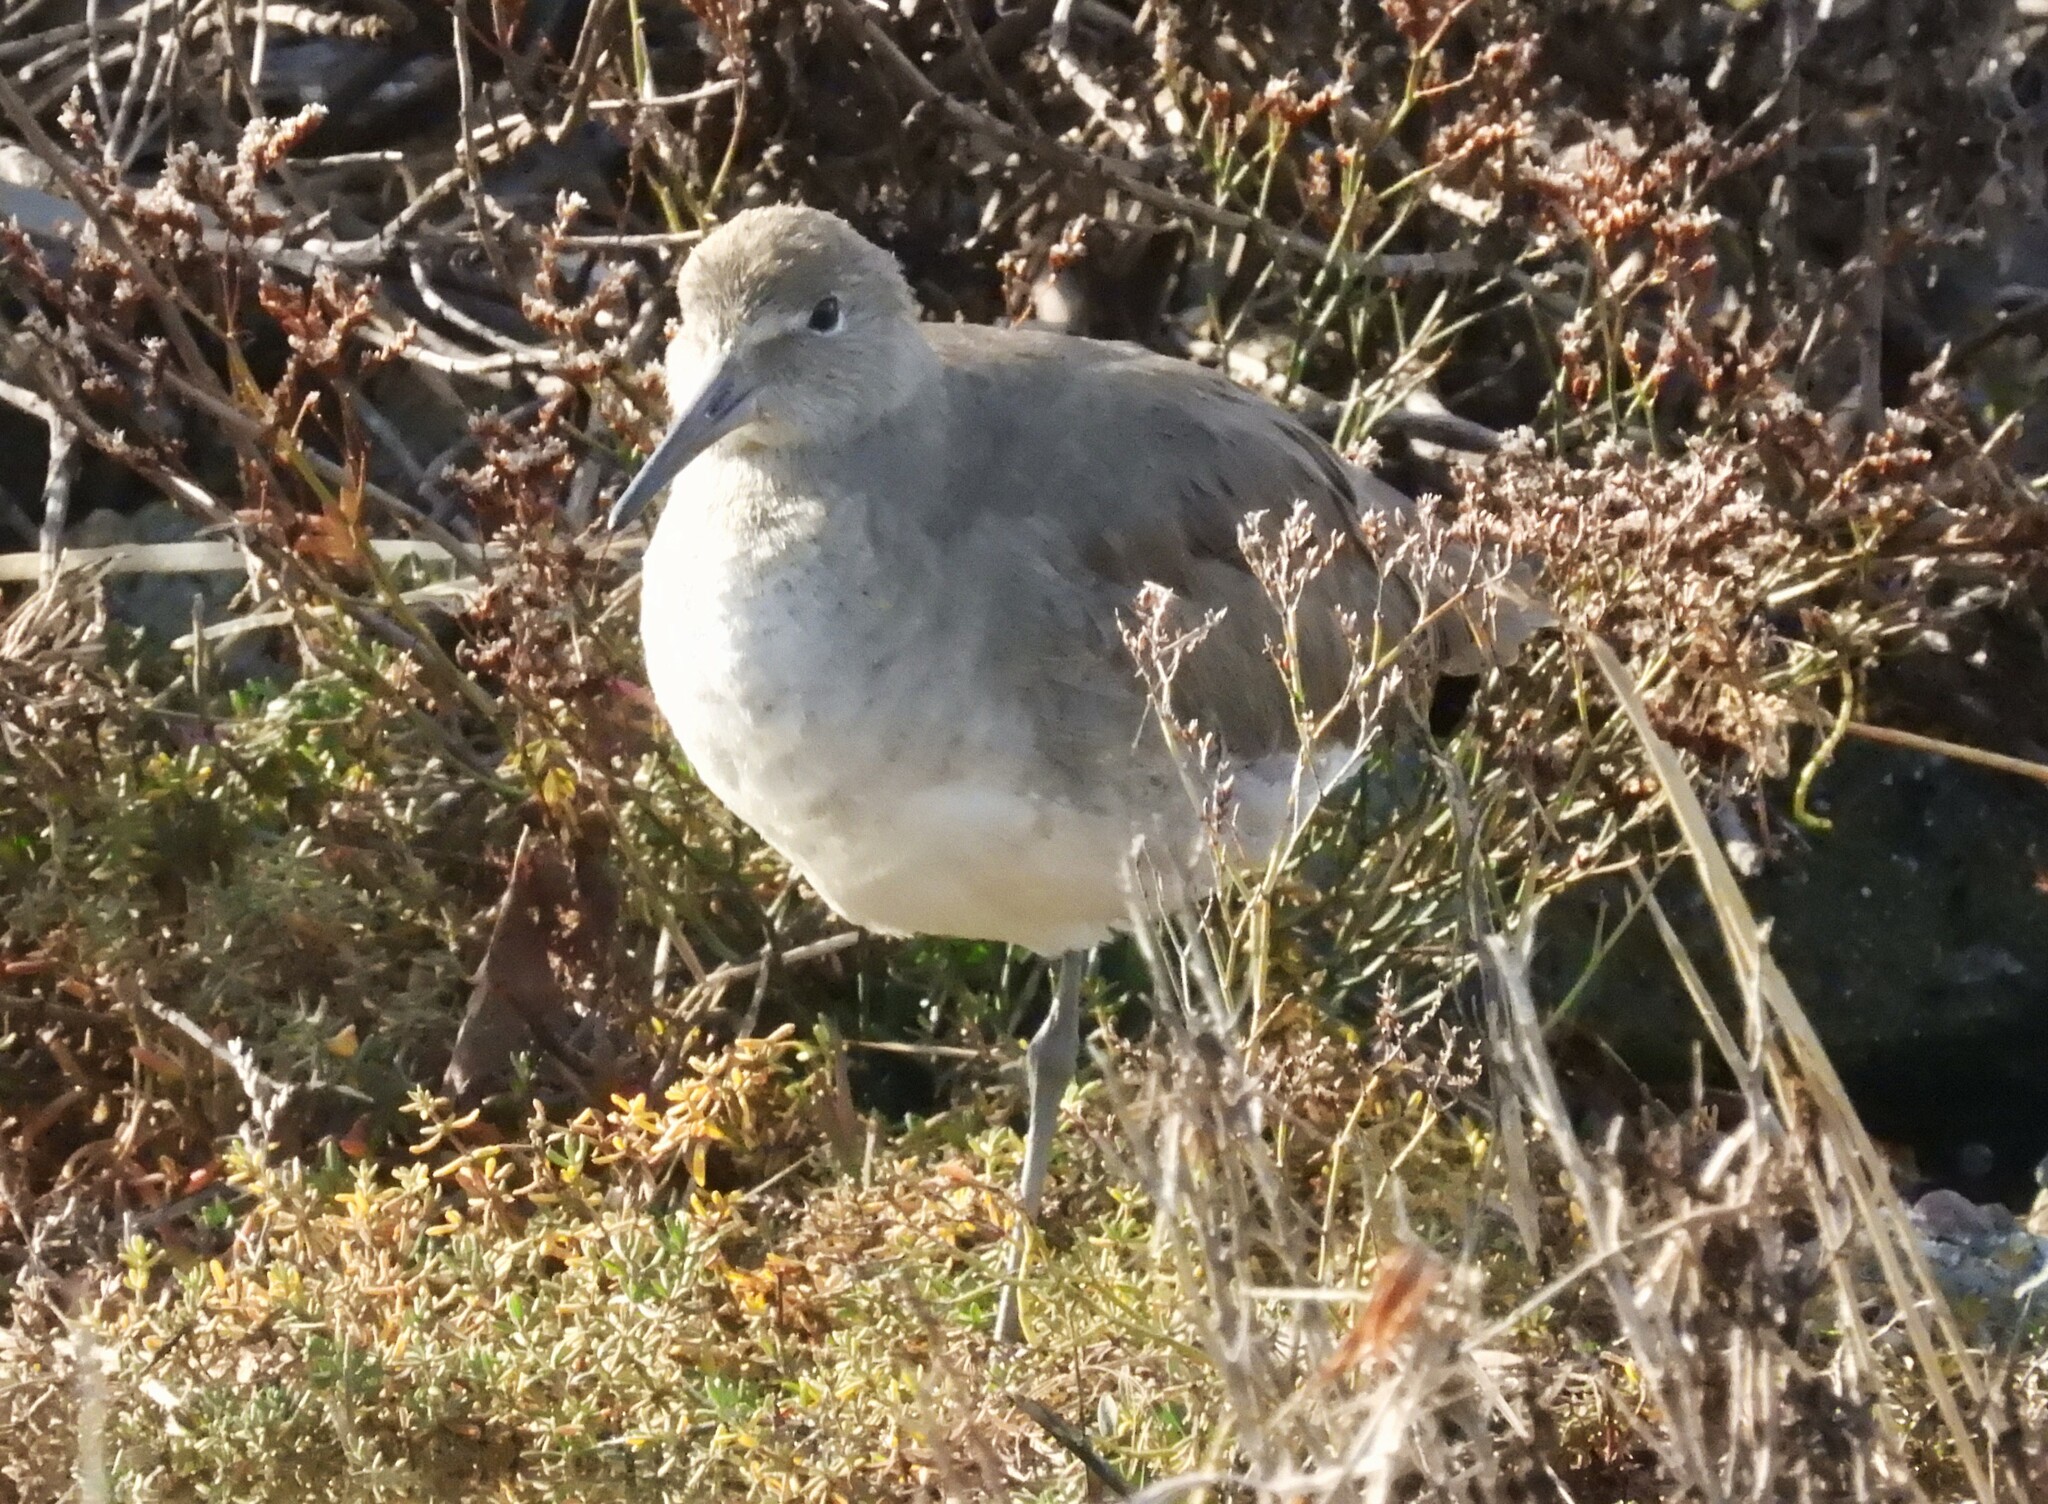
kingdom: Animalia
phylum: Chordata
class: Aves
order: Charadriiformes
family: Scolopacidae
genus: Tringa
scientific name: Tringa semipalmata
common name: Willet
